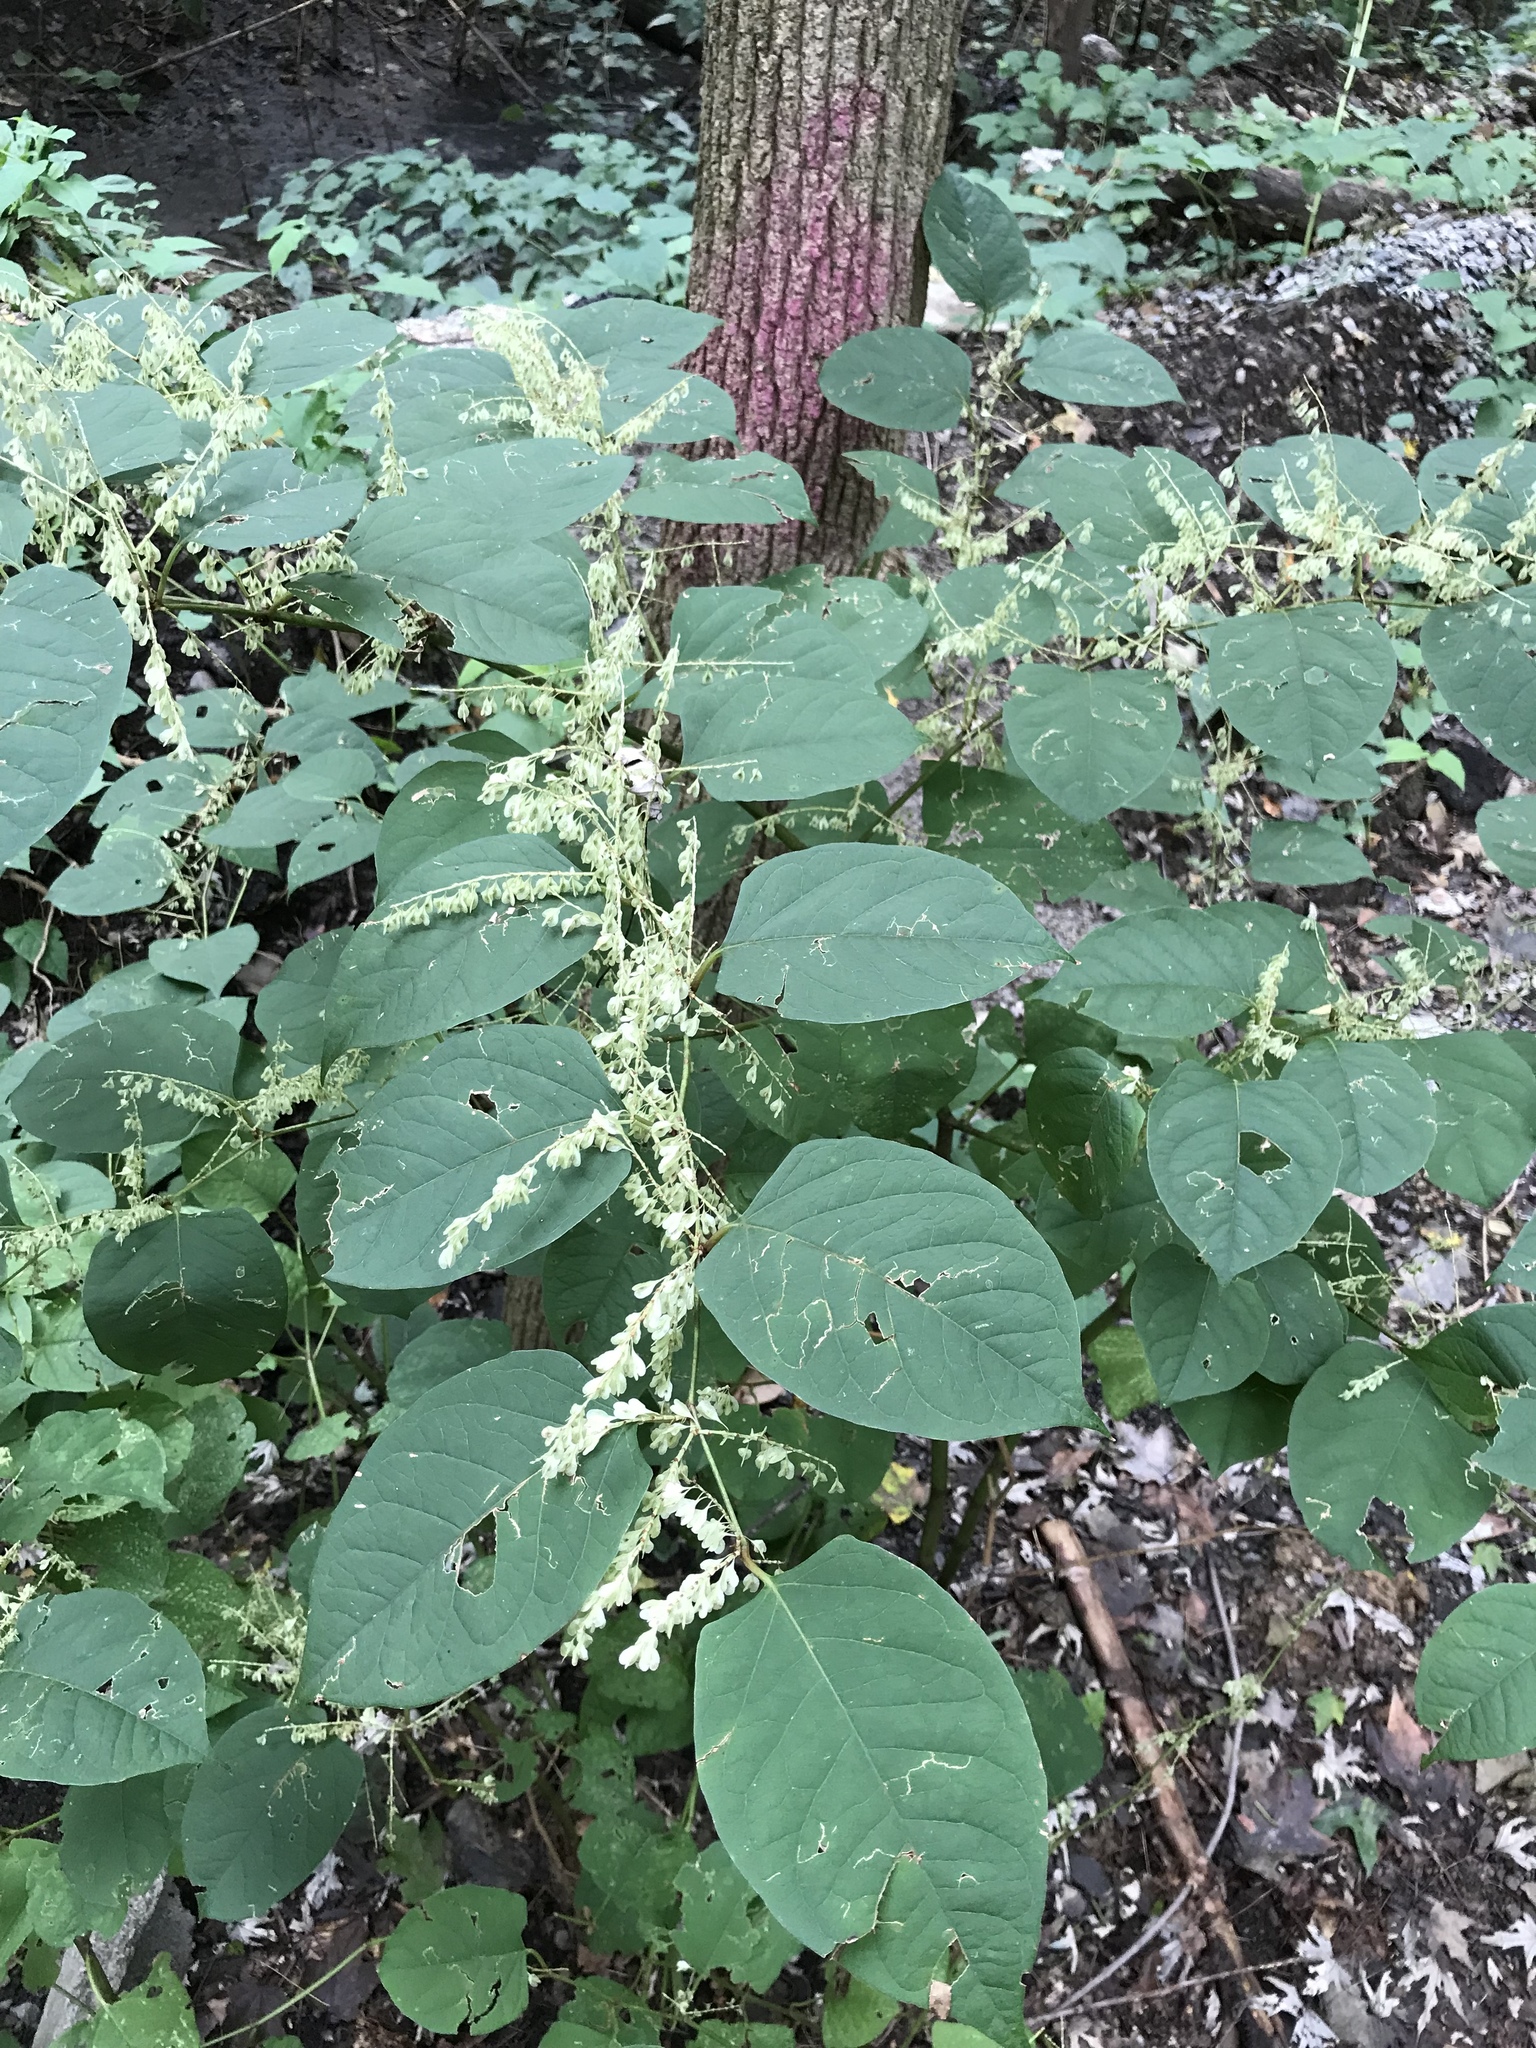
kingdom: Plantae
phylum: Tracheophyta
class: Magnoliopsida
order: Caryophyllales
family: Polygonaceae
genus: Reynoutria
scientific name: Reynoutria japonica
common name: Japanese knotweed
